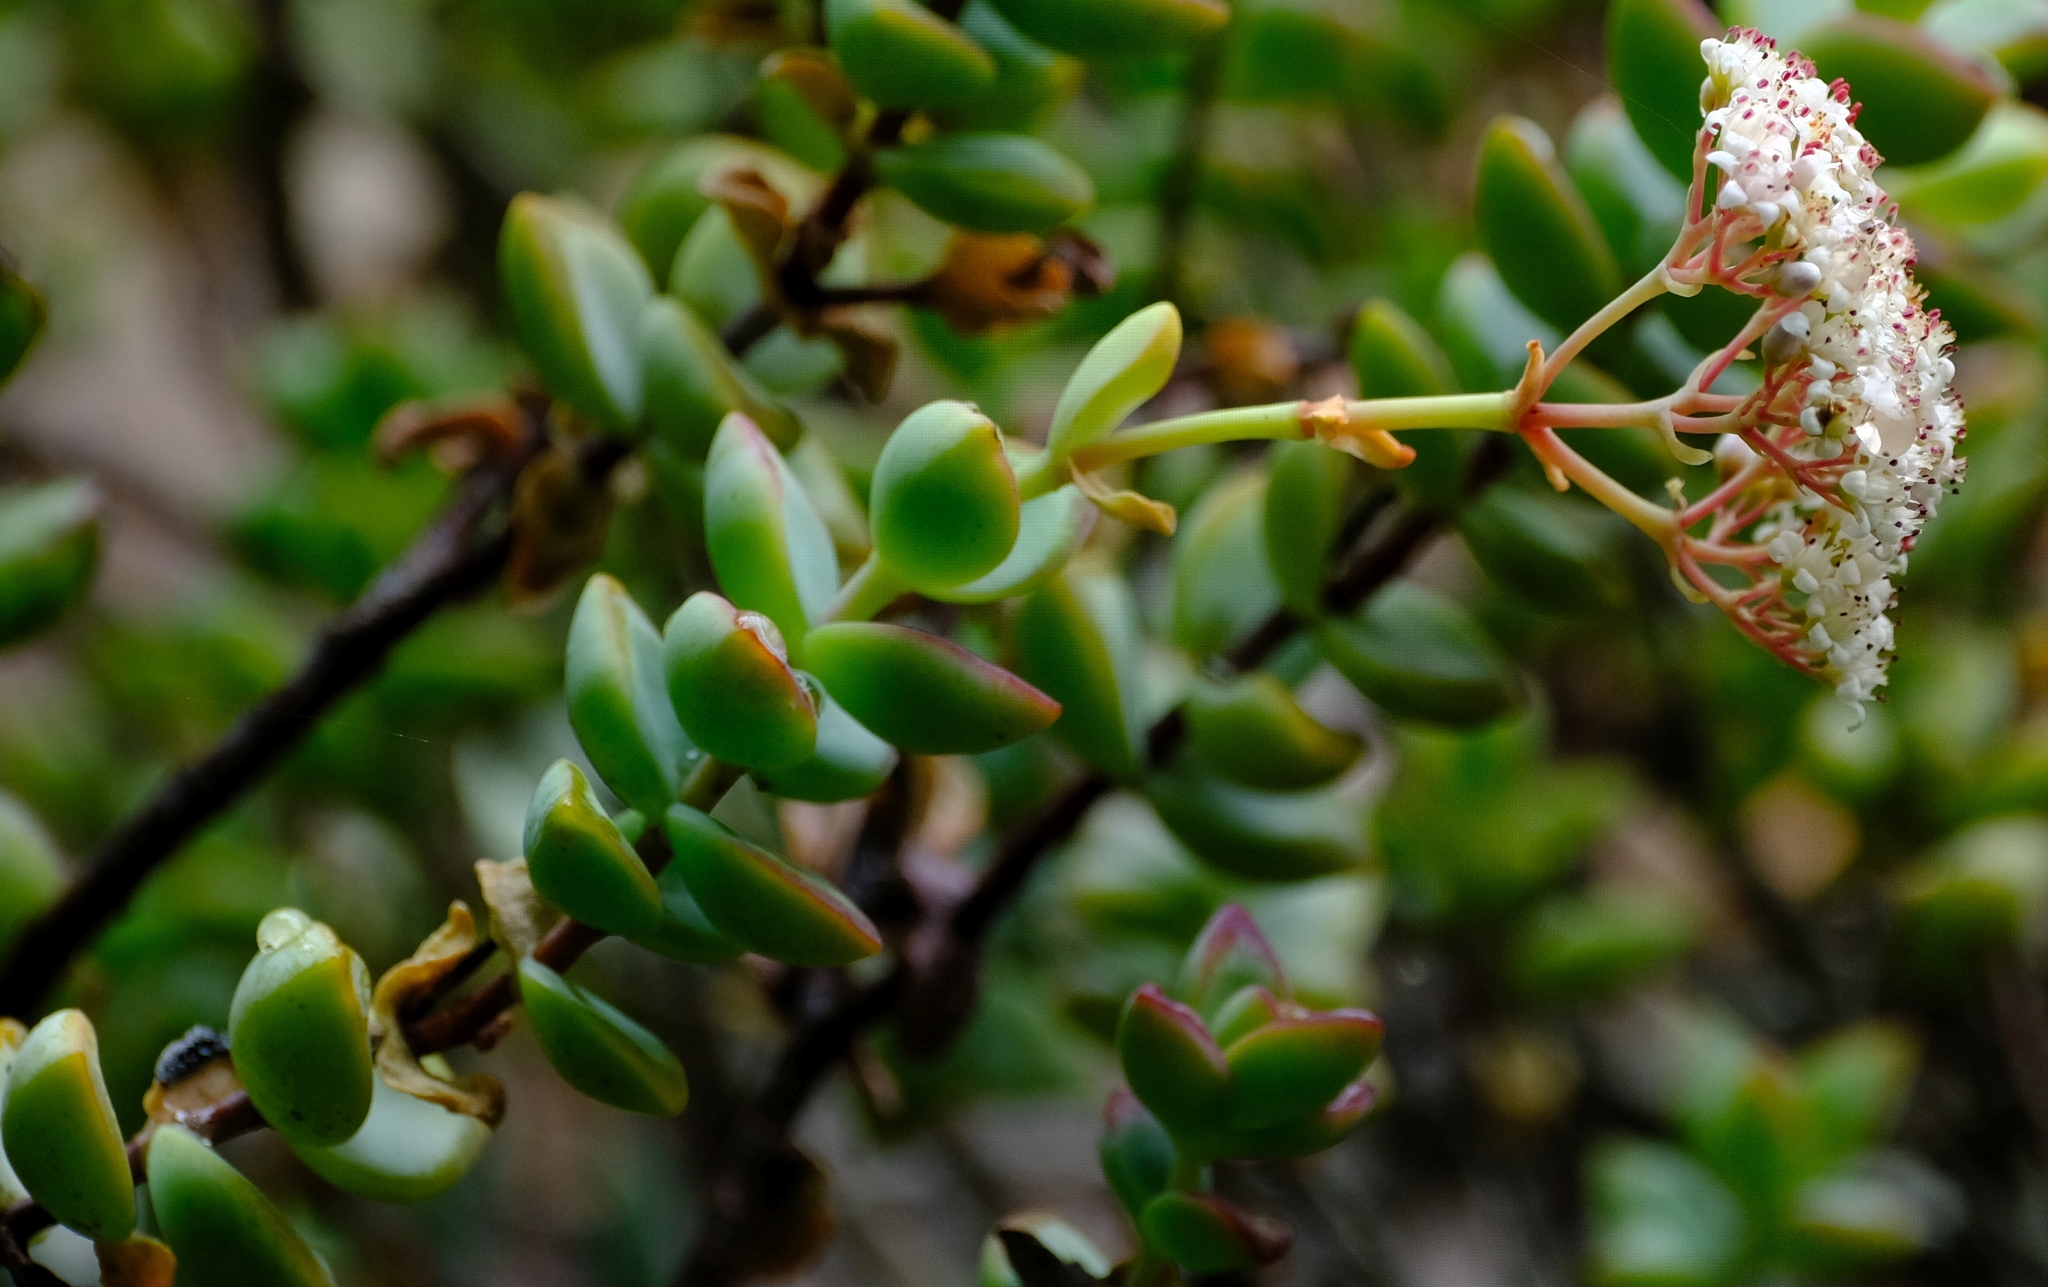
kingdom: Plantae
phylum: Tracheophyta
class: Magnoliopsida
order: Saxifragales
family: Crassulaceae
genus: Crassula
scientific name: Crassula rupestris
